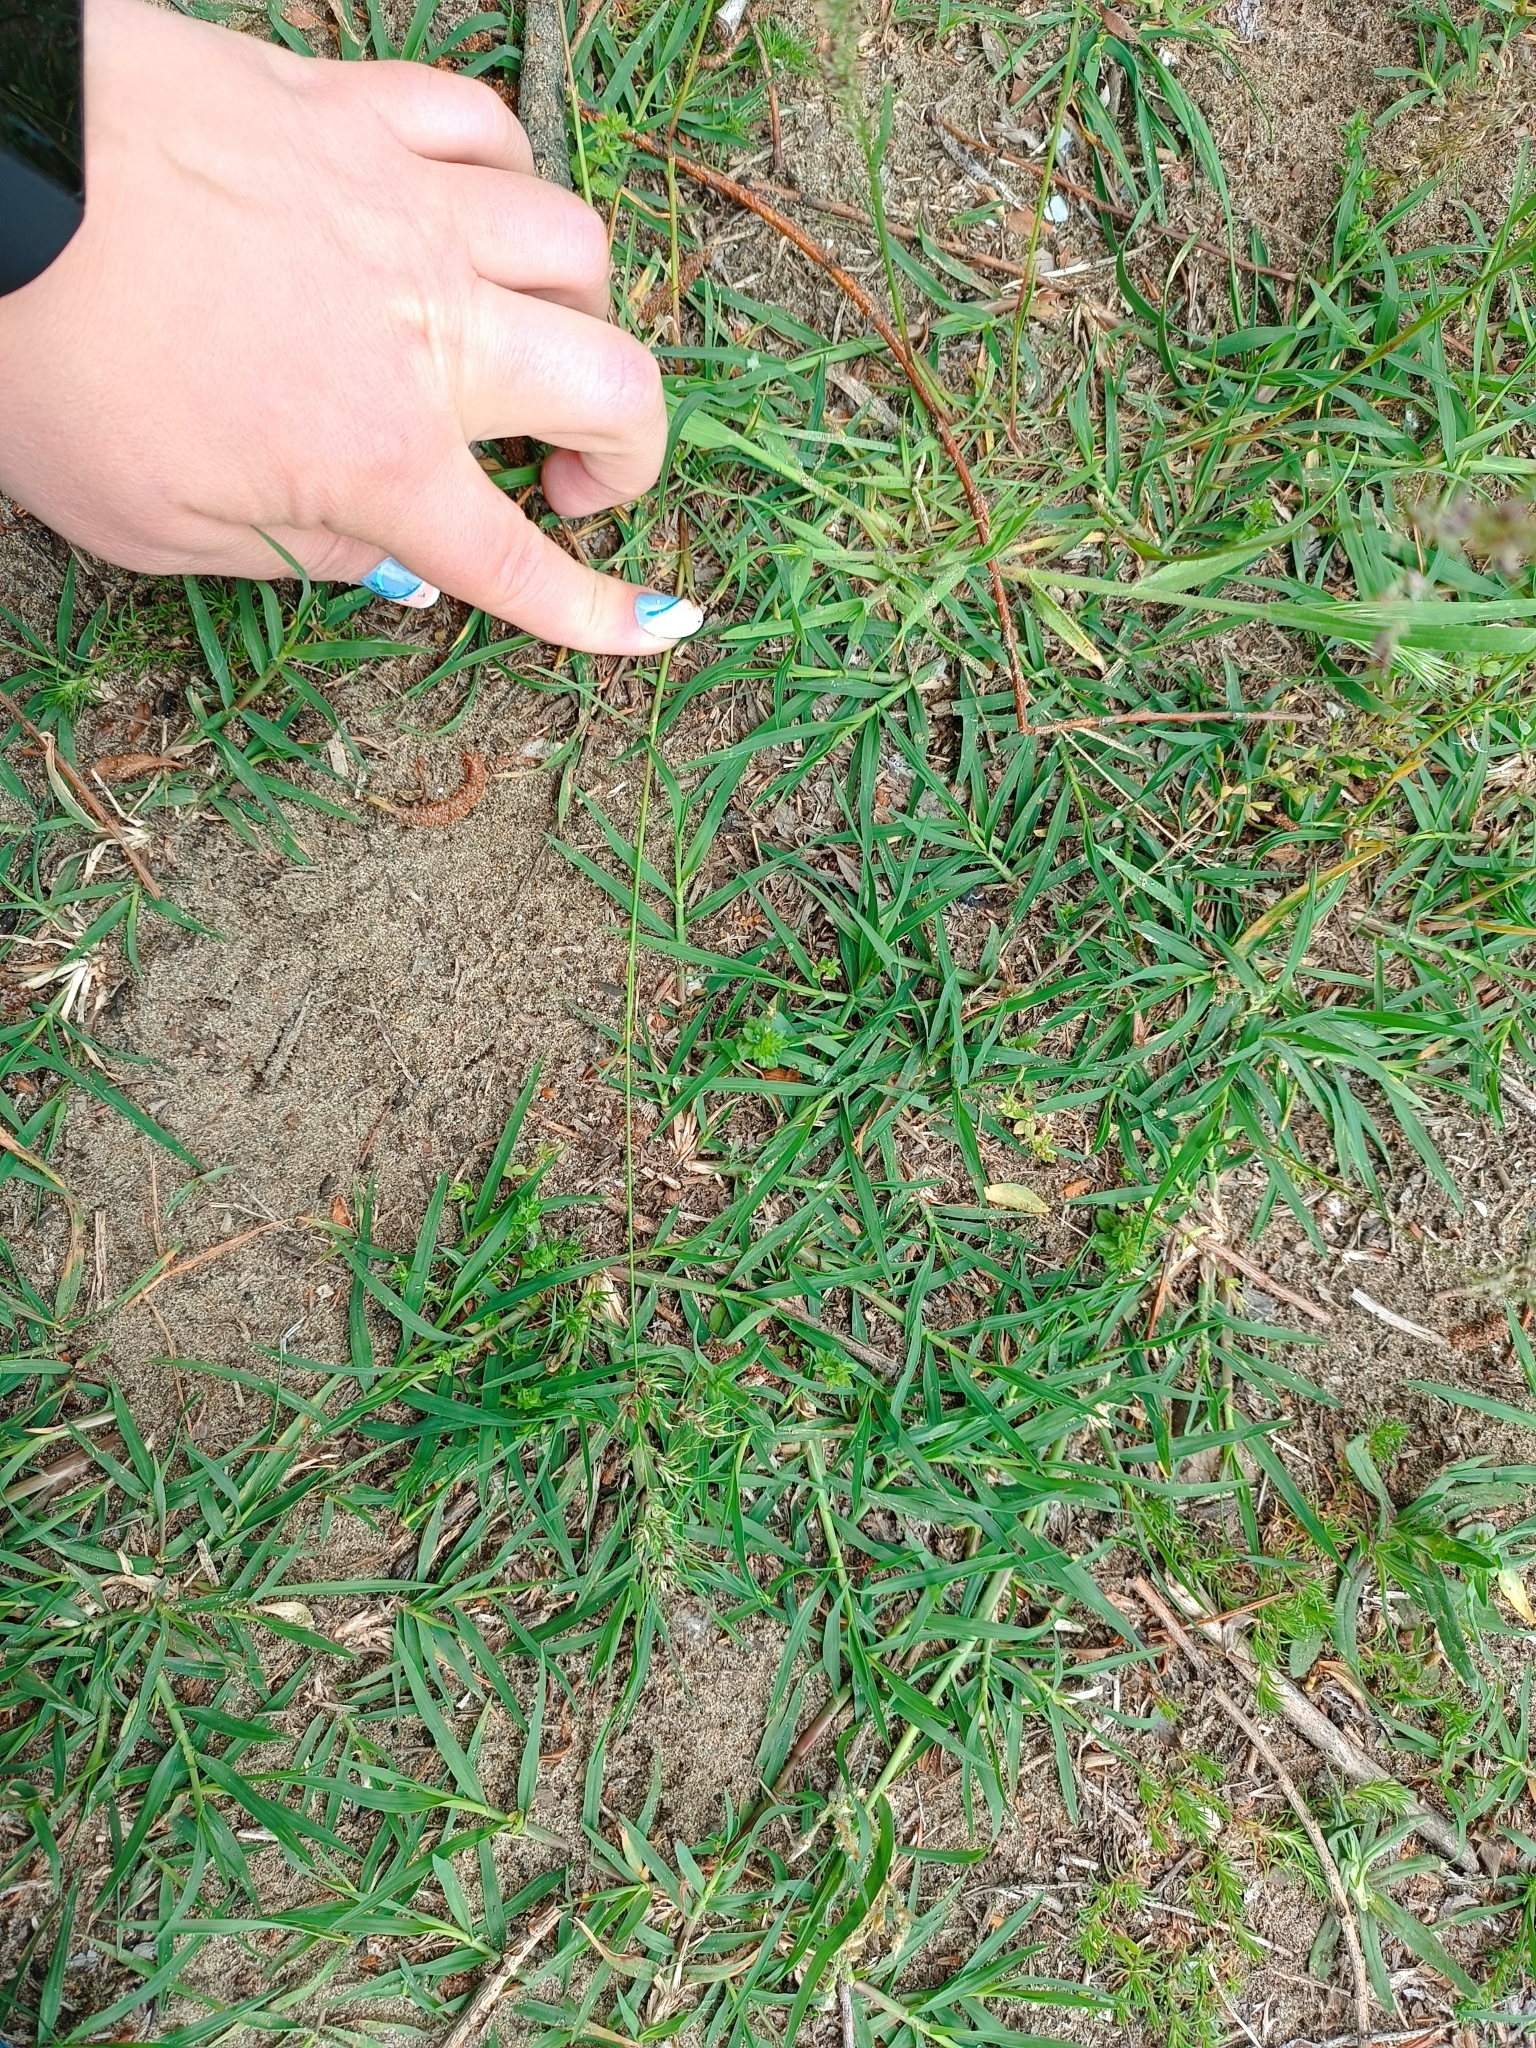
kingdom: Plantae
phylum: Tracheophyta
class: Liliopsida
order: Poales
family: Poaceae
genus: Poa
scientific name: Poa bulbosa
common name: Bulbous bluegrass
